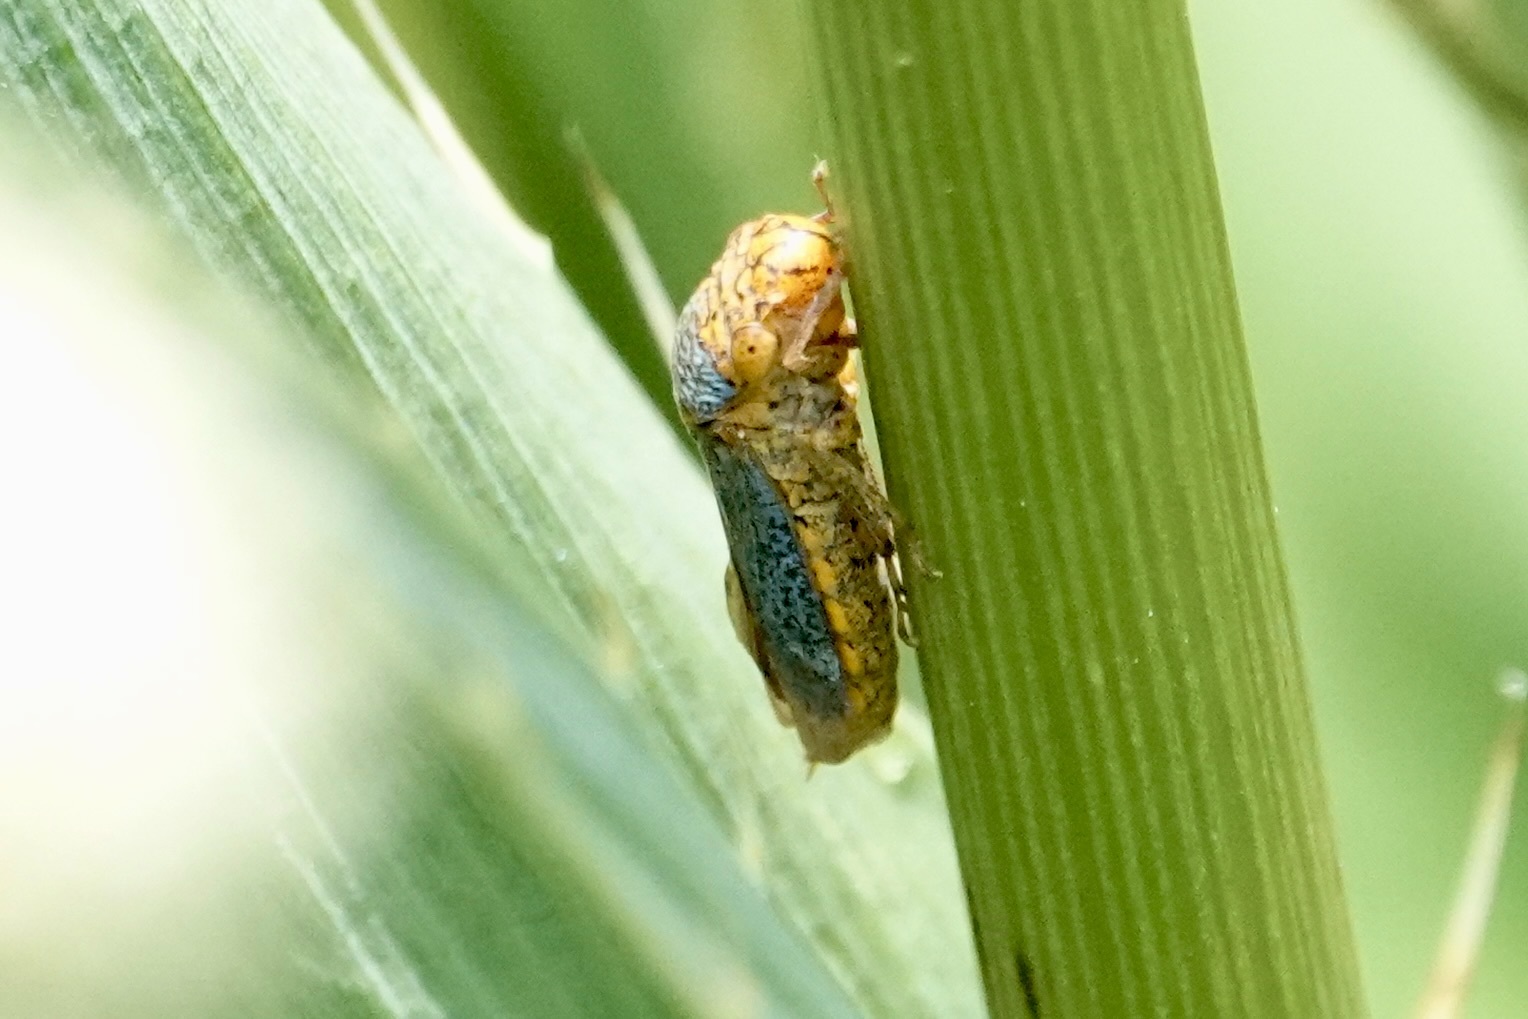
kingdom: Animalia
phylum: Arthropoda
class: Insecta
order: Hemiptera
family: Cicadellidae
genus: Oncometopia
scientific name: Oncometopia orbona
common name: Broad-headed sharpshooter
